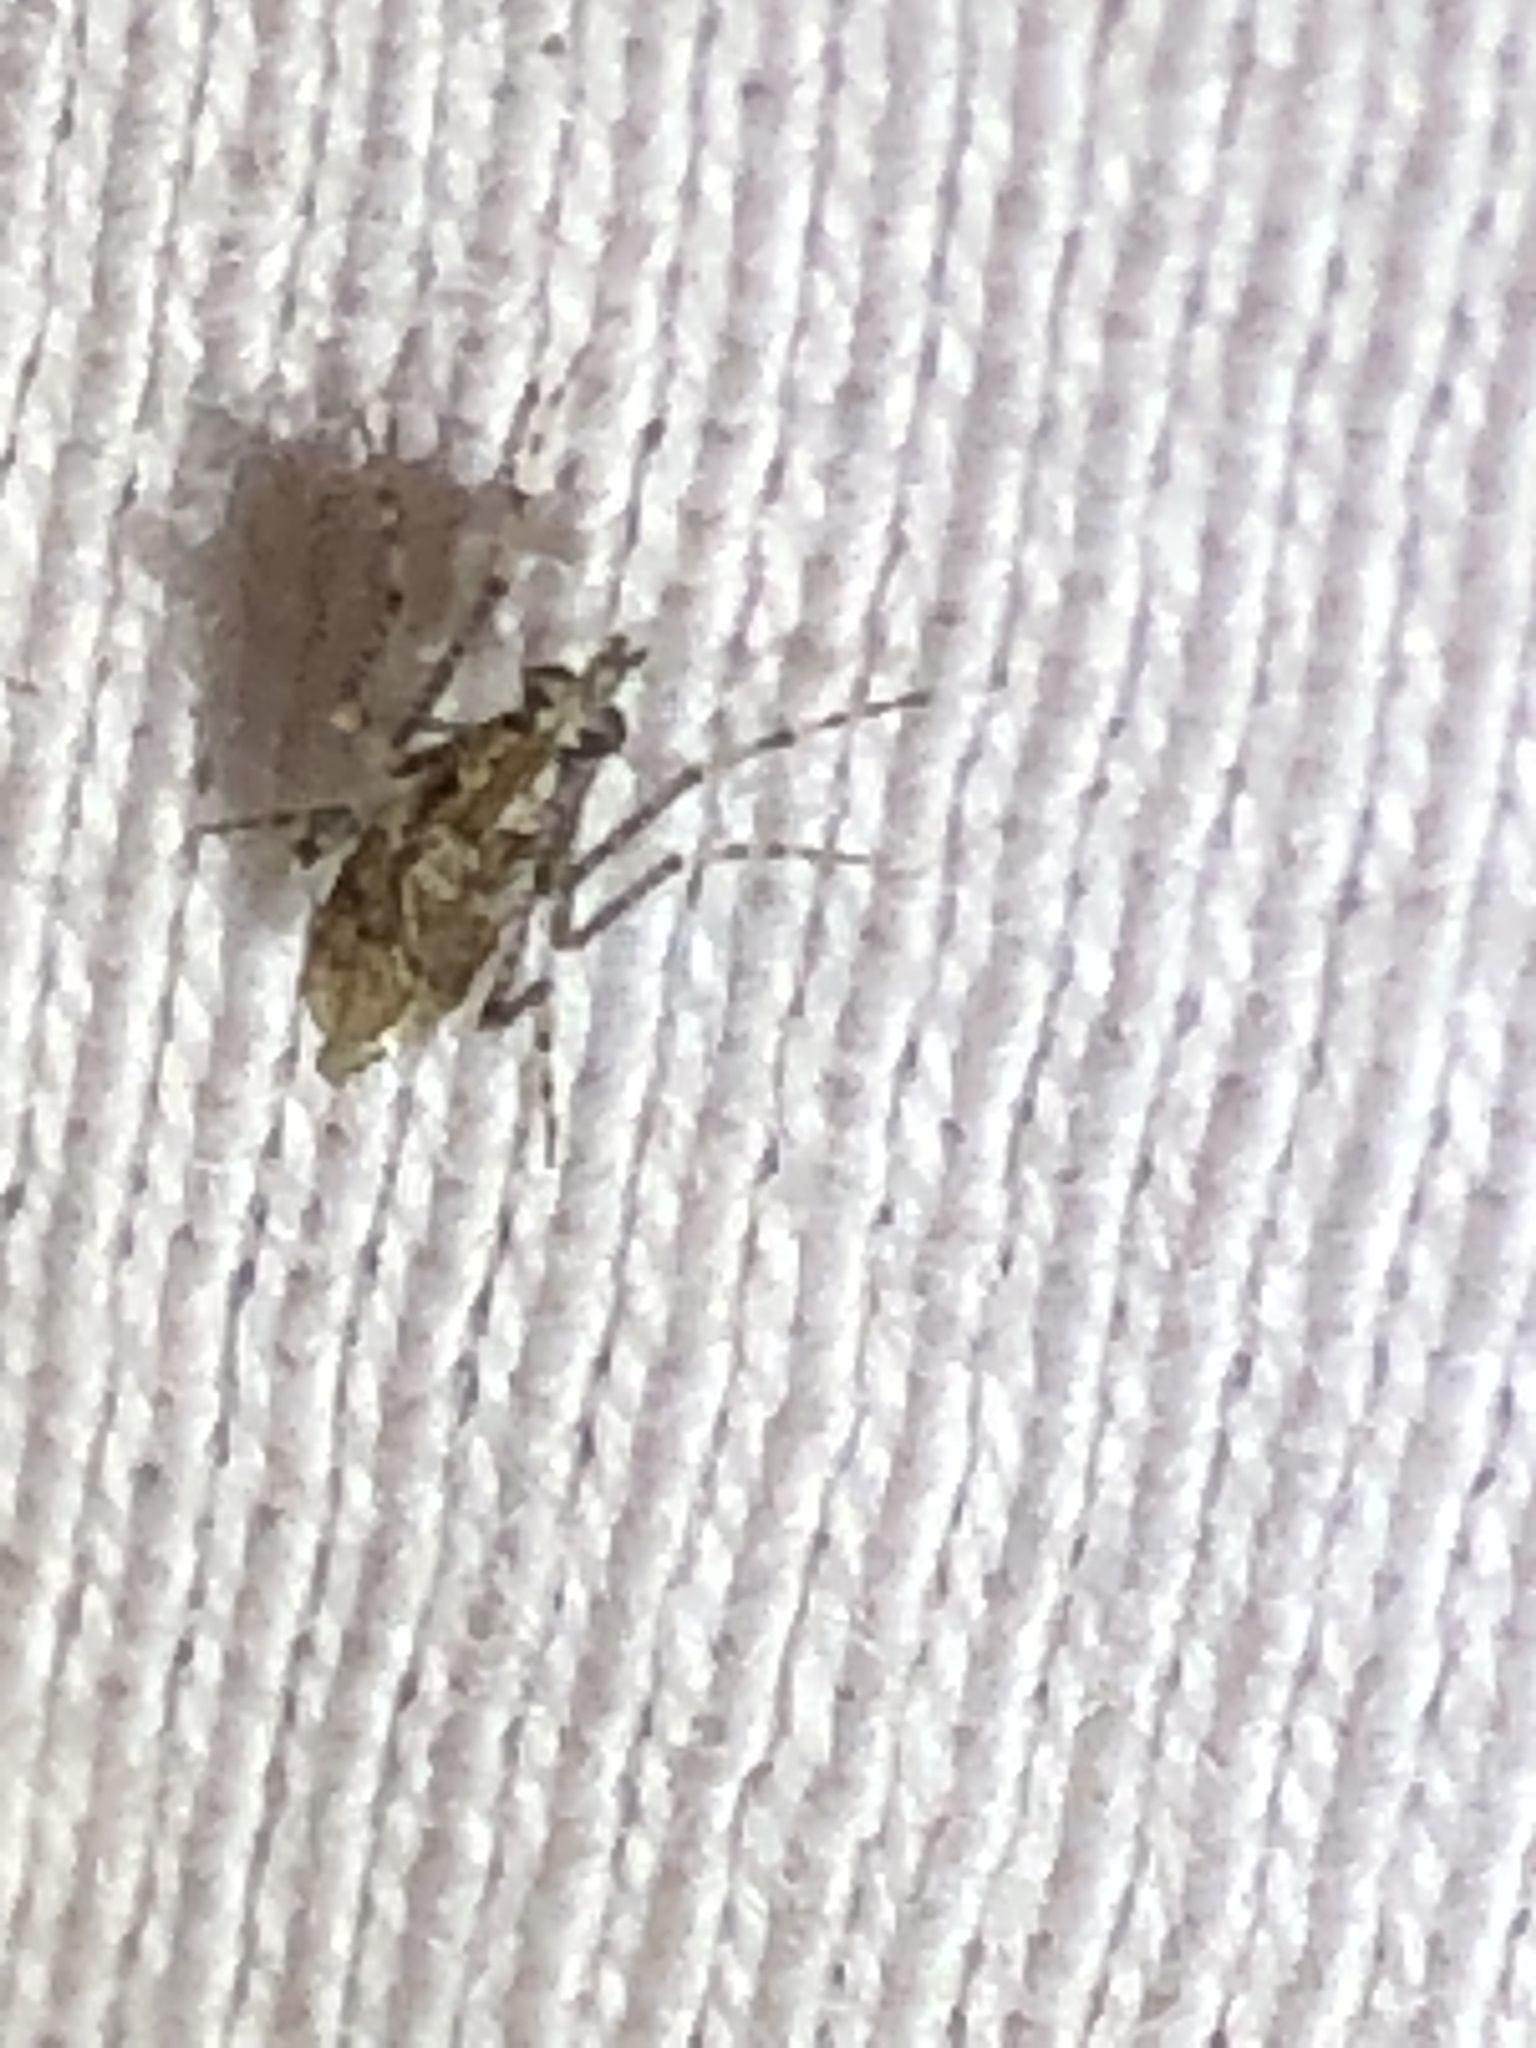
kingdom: Animalia
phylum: Arthropoda
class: Insecta
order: Diptera
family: Chaoboridae
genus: Chaoborus
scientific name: Chaoborus punctipennis
